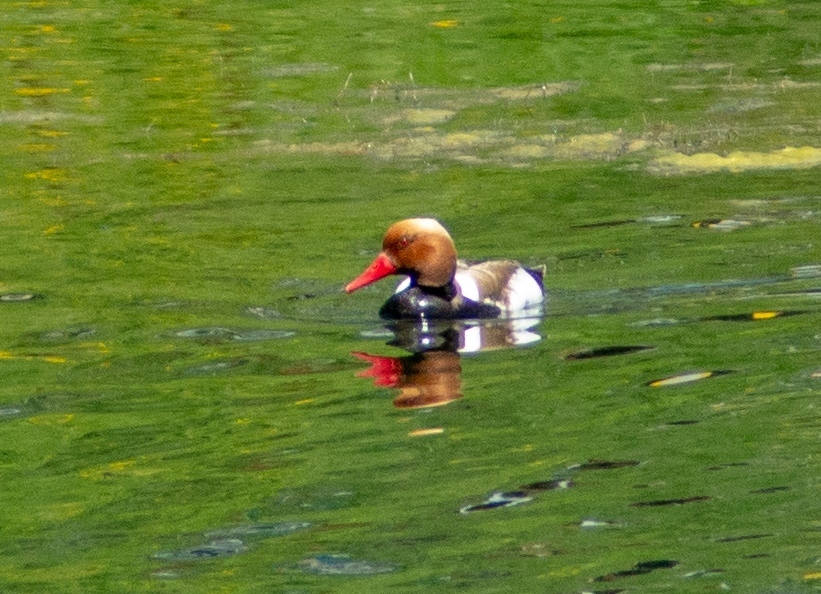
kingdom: Animalia
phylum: Chordata
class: Aves
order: Anseriformes
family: Anatidae
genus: Netta
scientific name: Netta rufina
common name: Red-crested pochard
